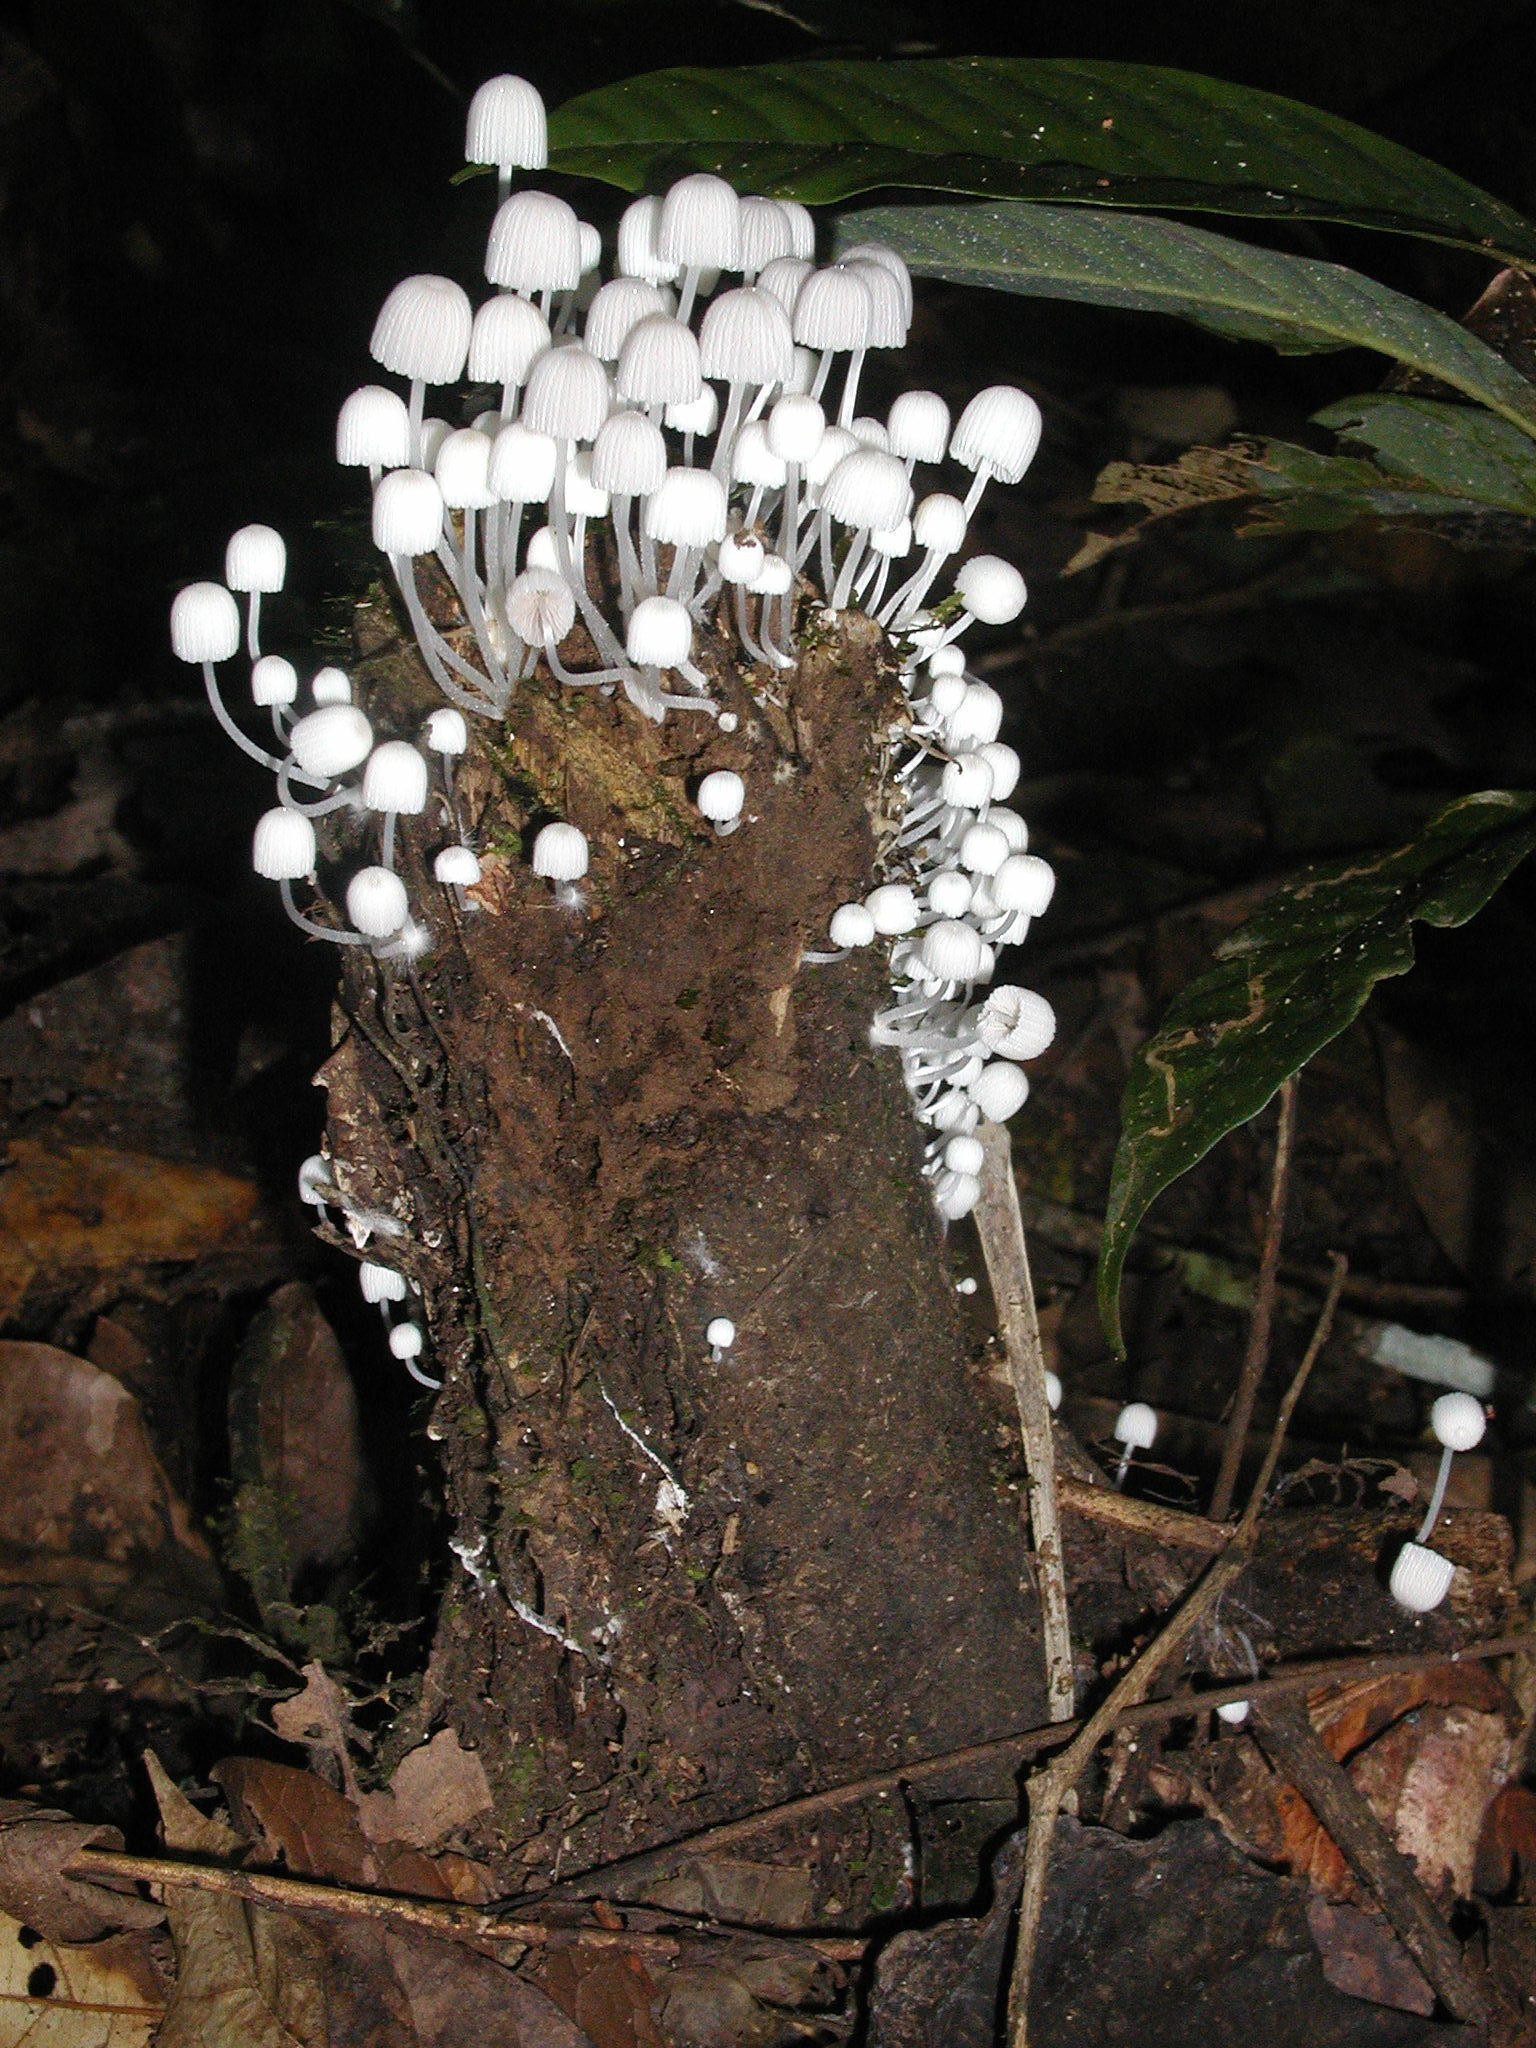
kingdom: Fungi
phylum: Basidiomycota
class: Agaricomycetes
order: Agaricales
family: Psathyrellaceae
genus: Coprinellus
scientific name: Coprinellus disseminatus
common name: Fairies' bonnets
